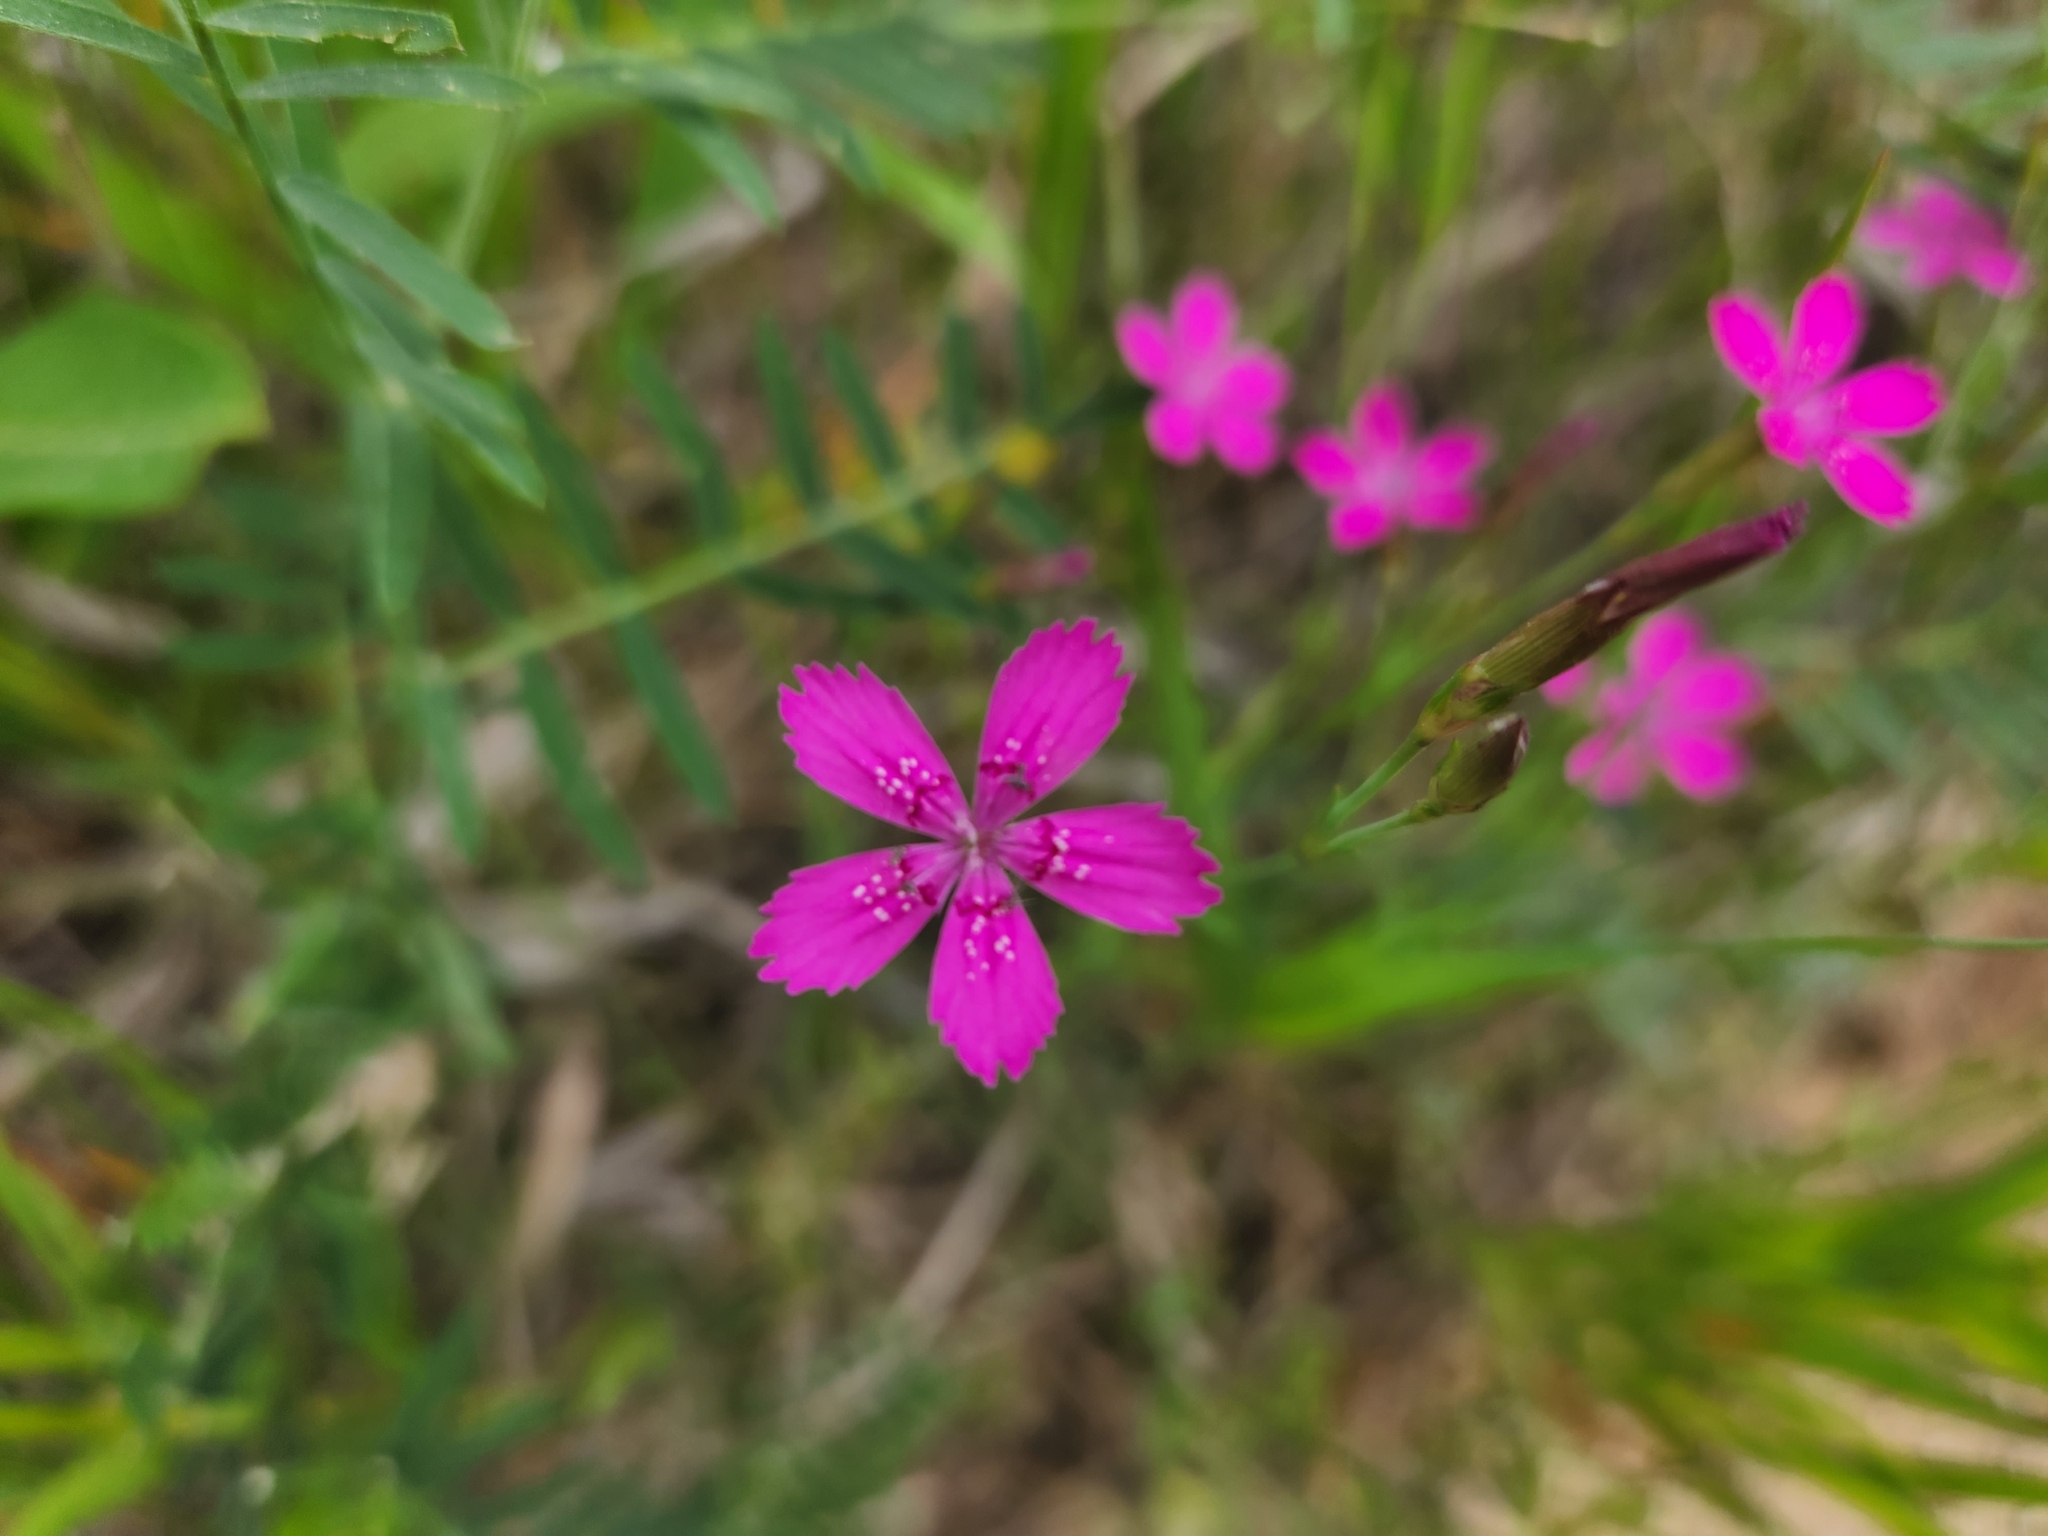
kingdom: Plantae
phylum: Tracheophyta
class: Magnoliopsida
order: Caryophyllales
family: Caryophyllaceae
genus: Dianthus
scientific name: Dianthus deltoides
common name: Maiden pink
